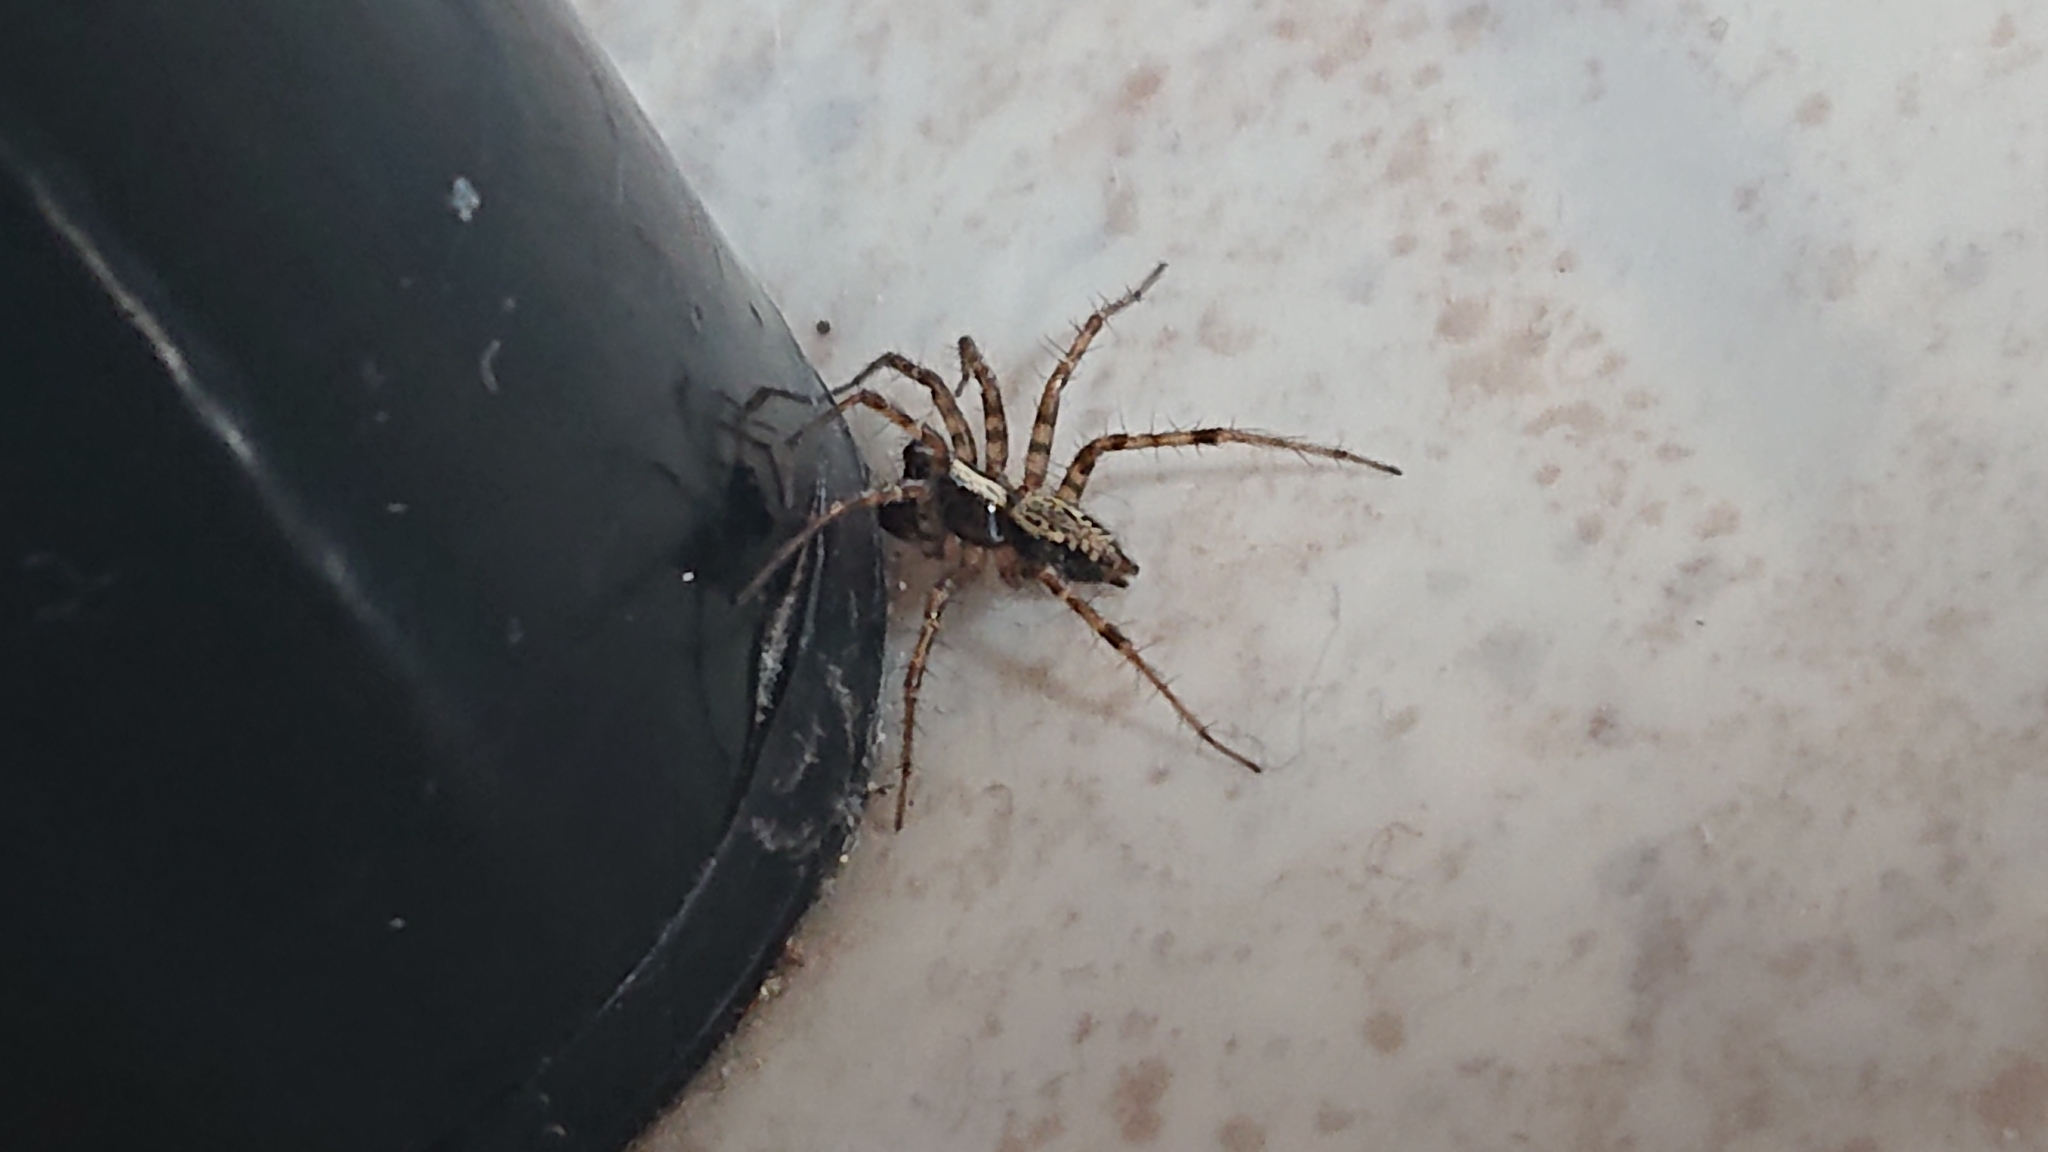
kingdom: Animalia
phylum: Arthropoda
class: Arachnida
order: Araneae
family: Agelenidae
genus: Textrix
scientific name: Textrix denticulata
